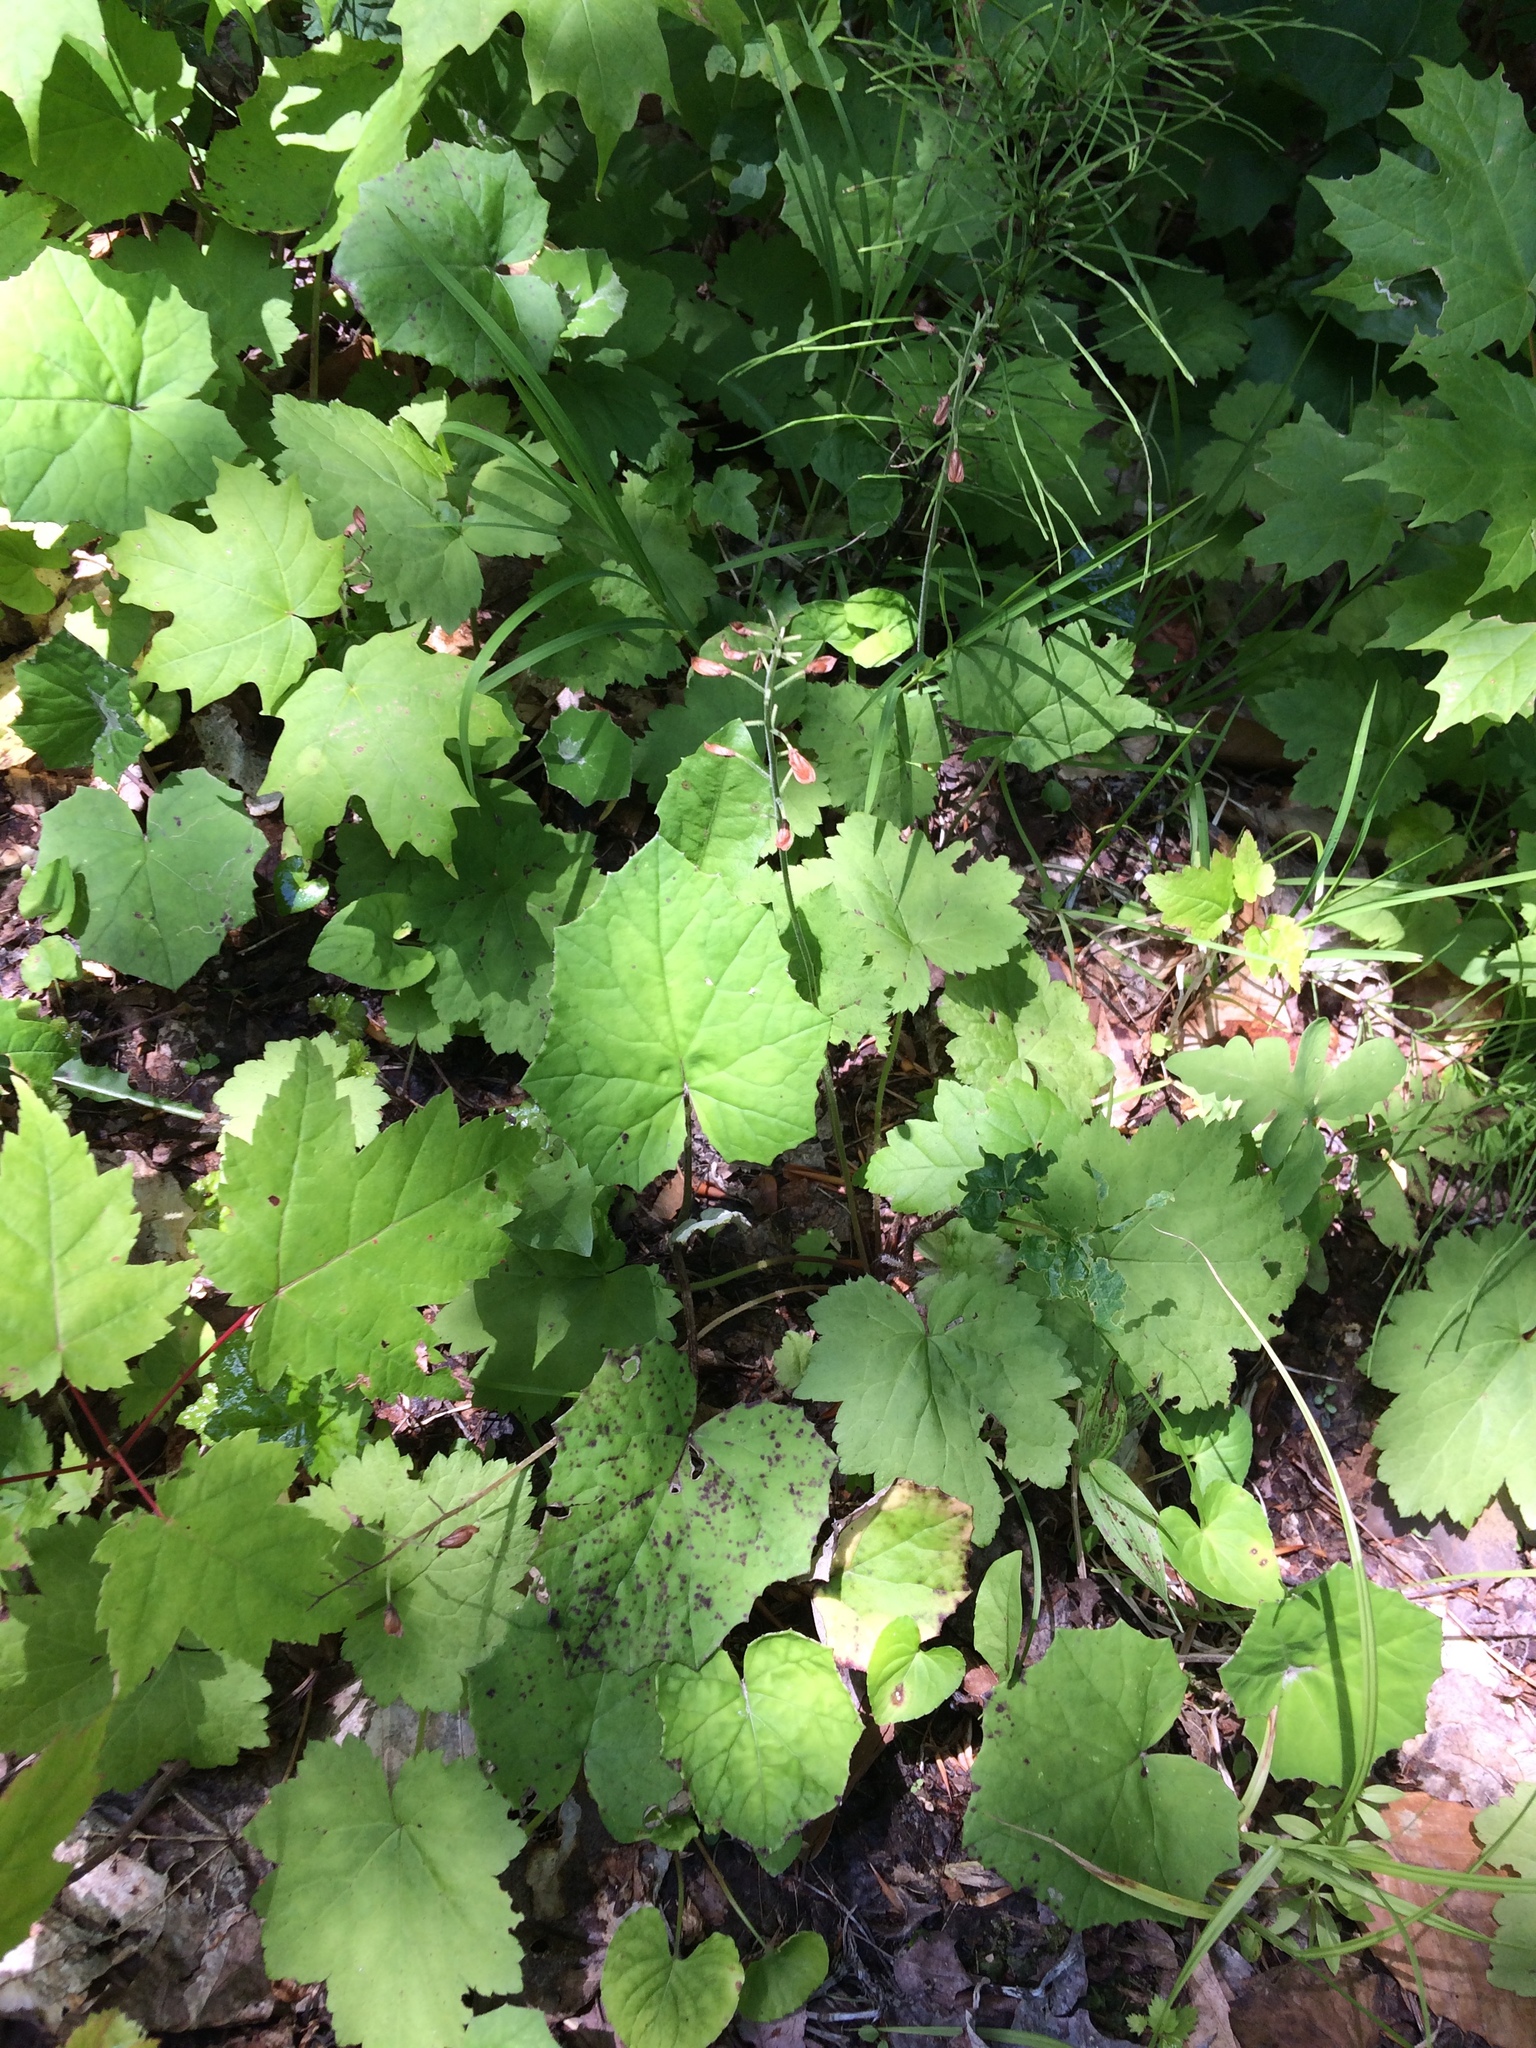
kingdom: Plantae
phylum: Tracheophyta
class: Magnoliopsida
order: Saxifragales
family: Saxifragaceae
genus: Tiarella
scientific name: Tiarella stolonifera
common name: Stoloniferous foamflower
